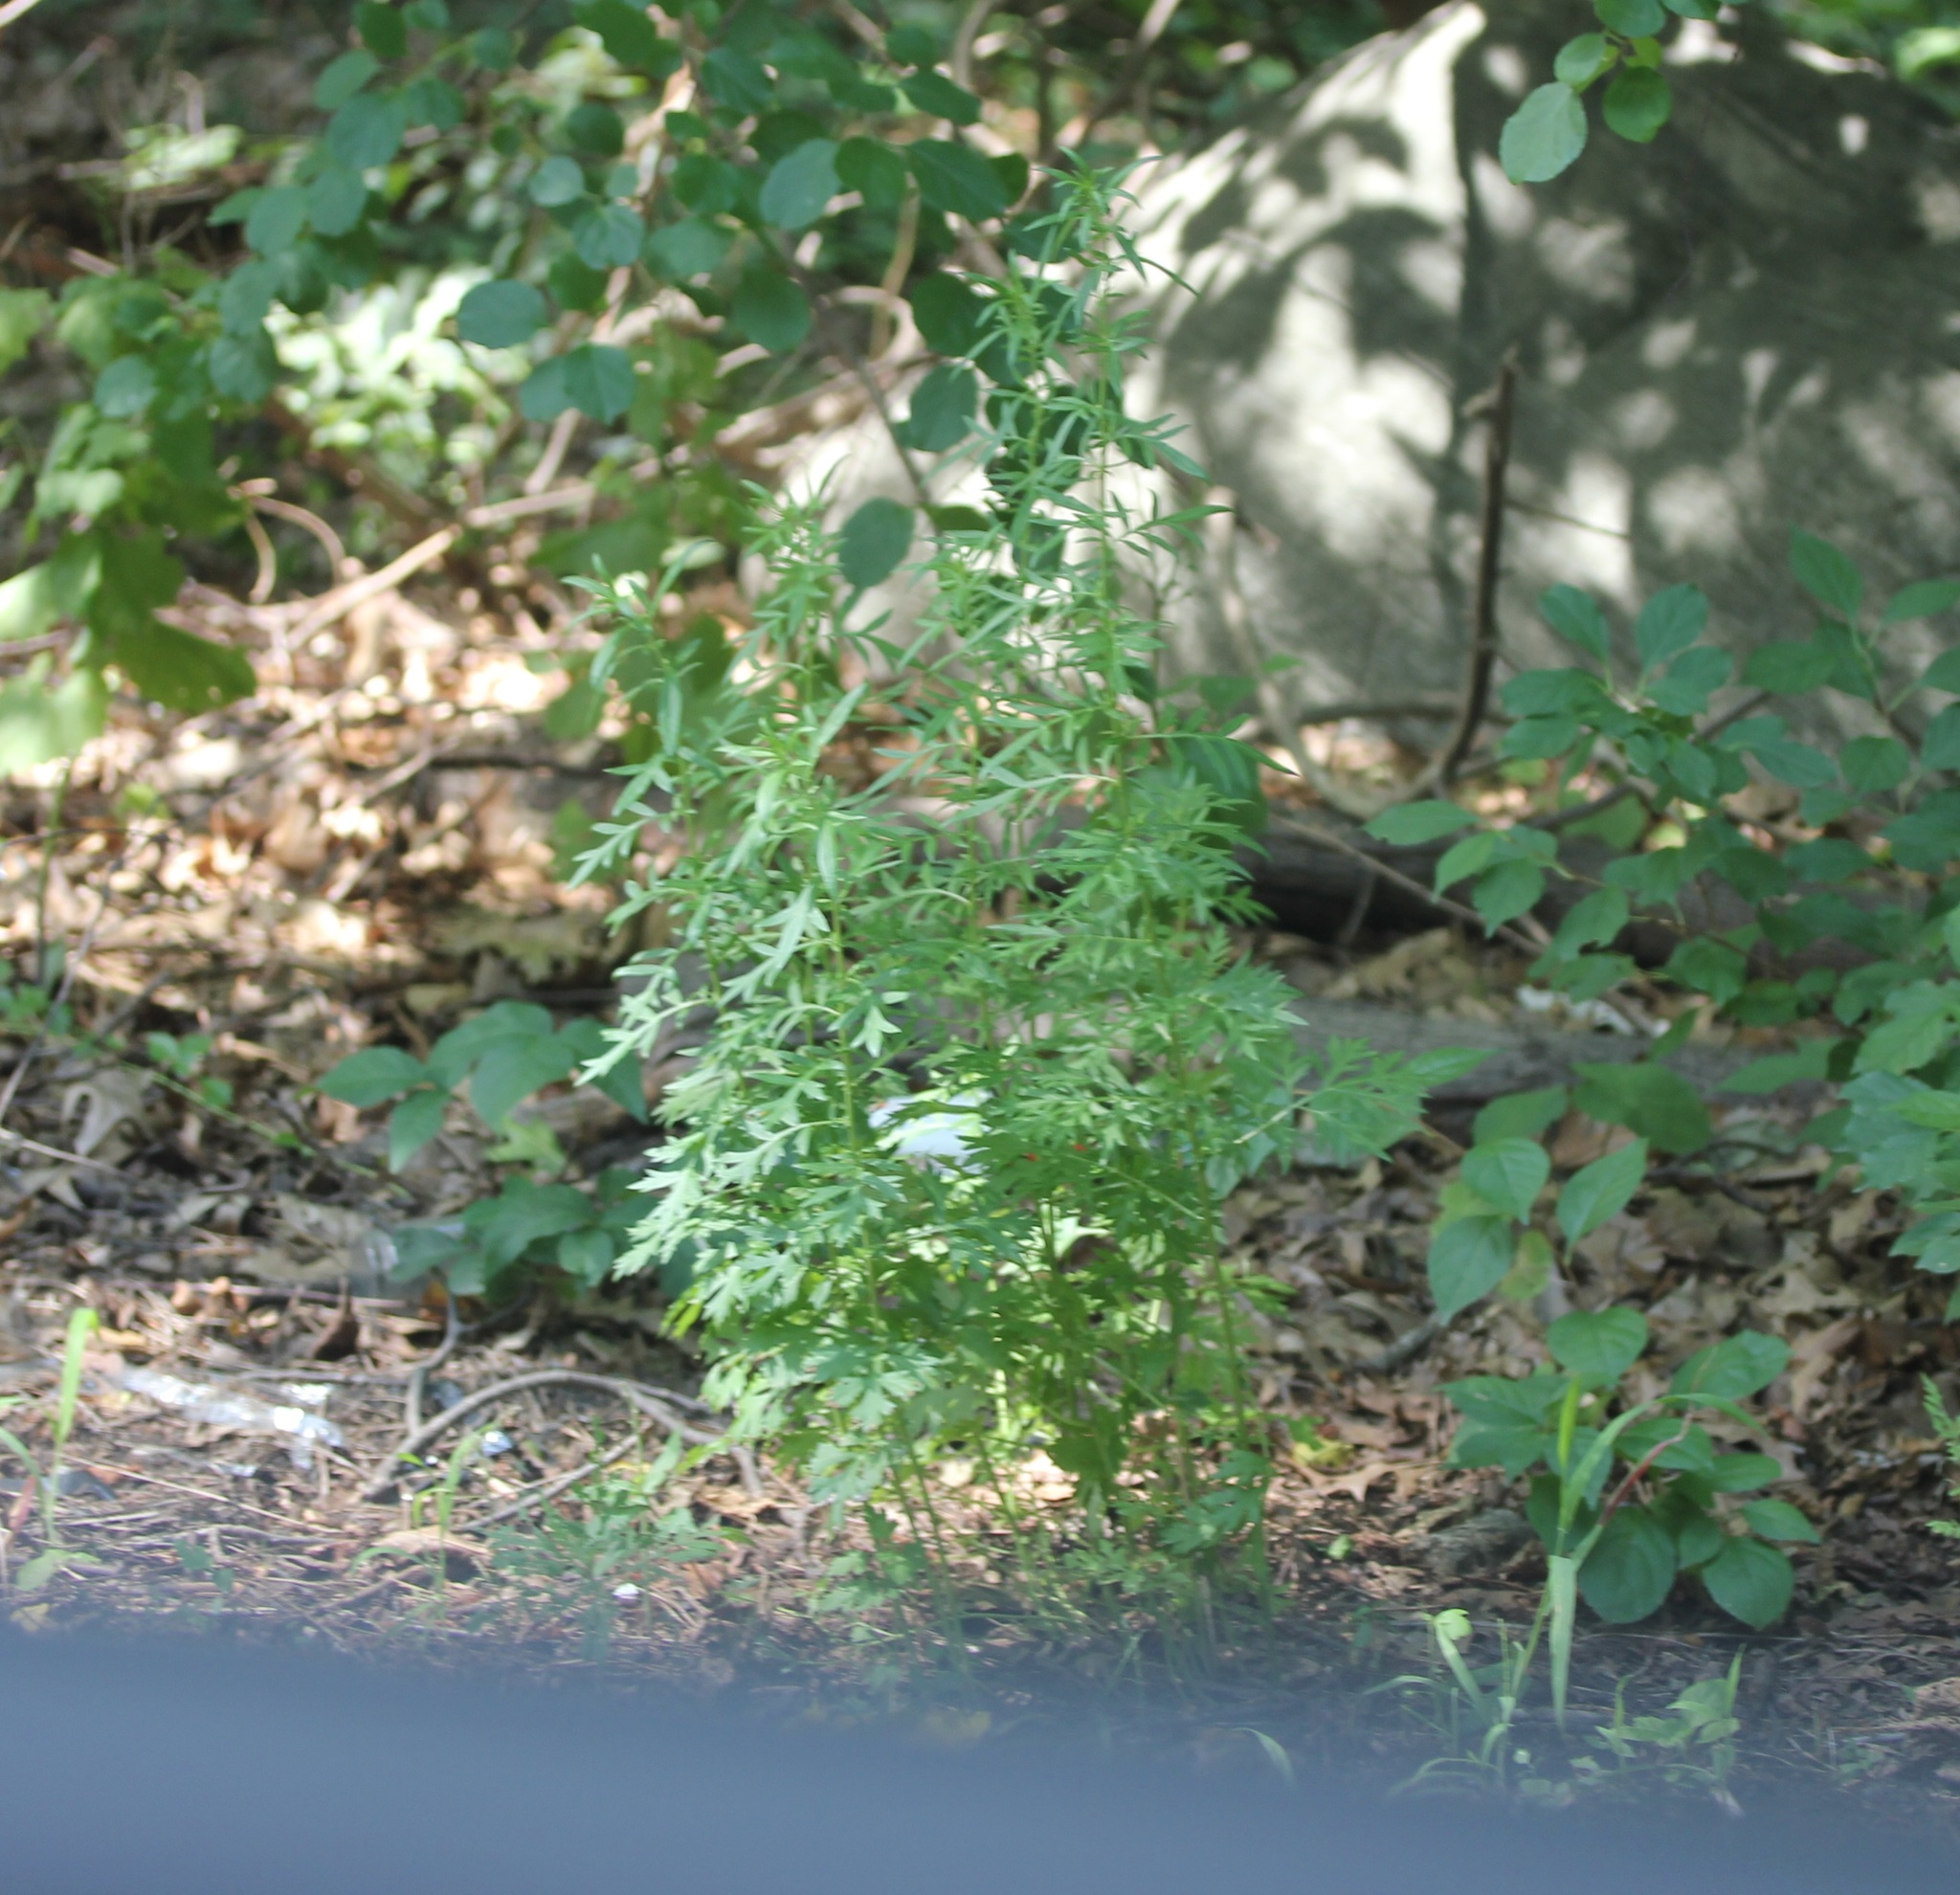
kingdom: Plantae
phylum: Tracheophyta
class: Magnoliopsida
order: Asterales
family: Asteraceae
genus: Artemisia
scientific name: Artemisia vulgaris
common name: Mugwort
